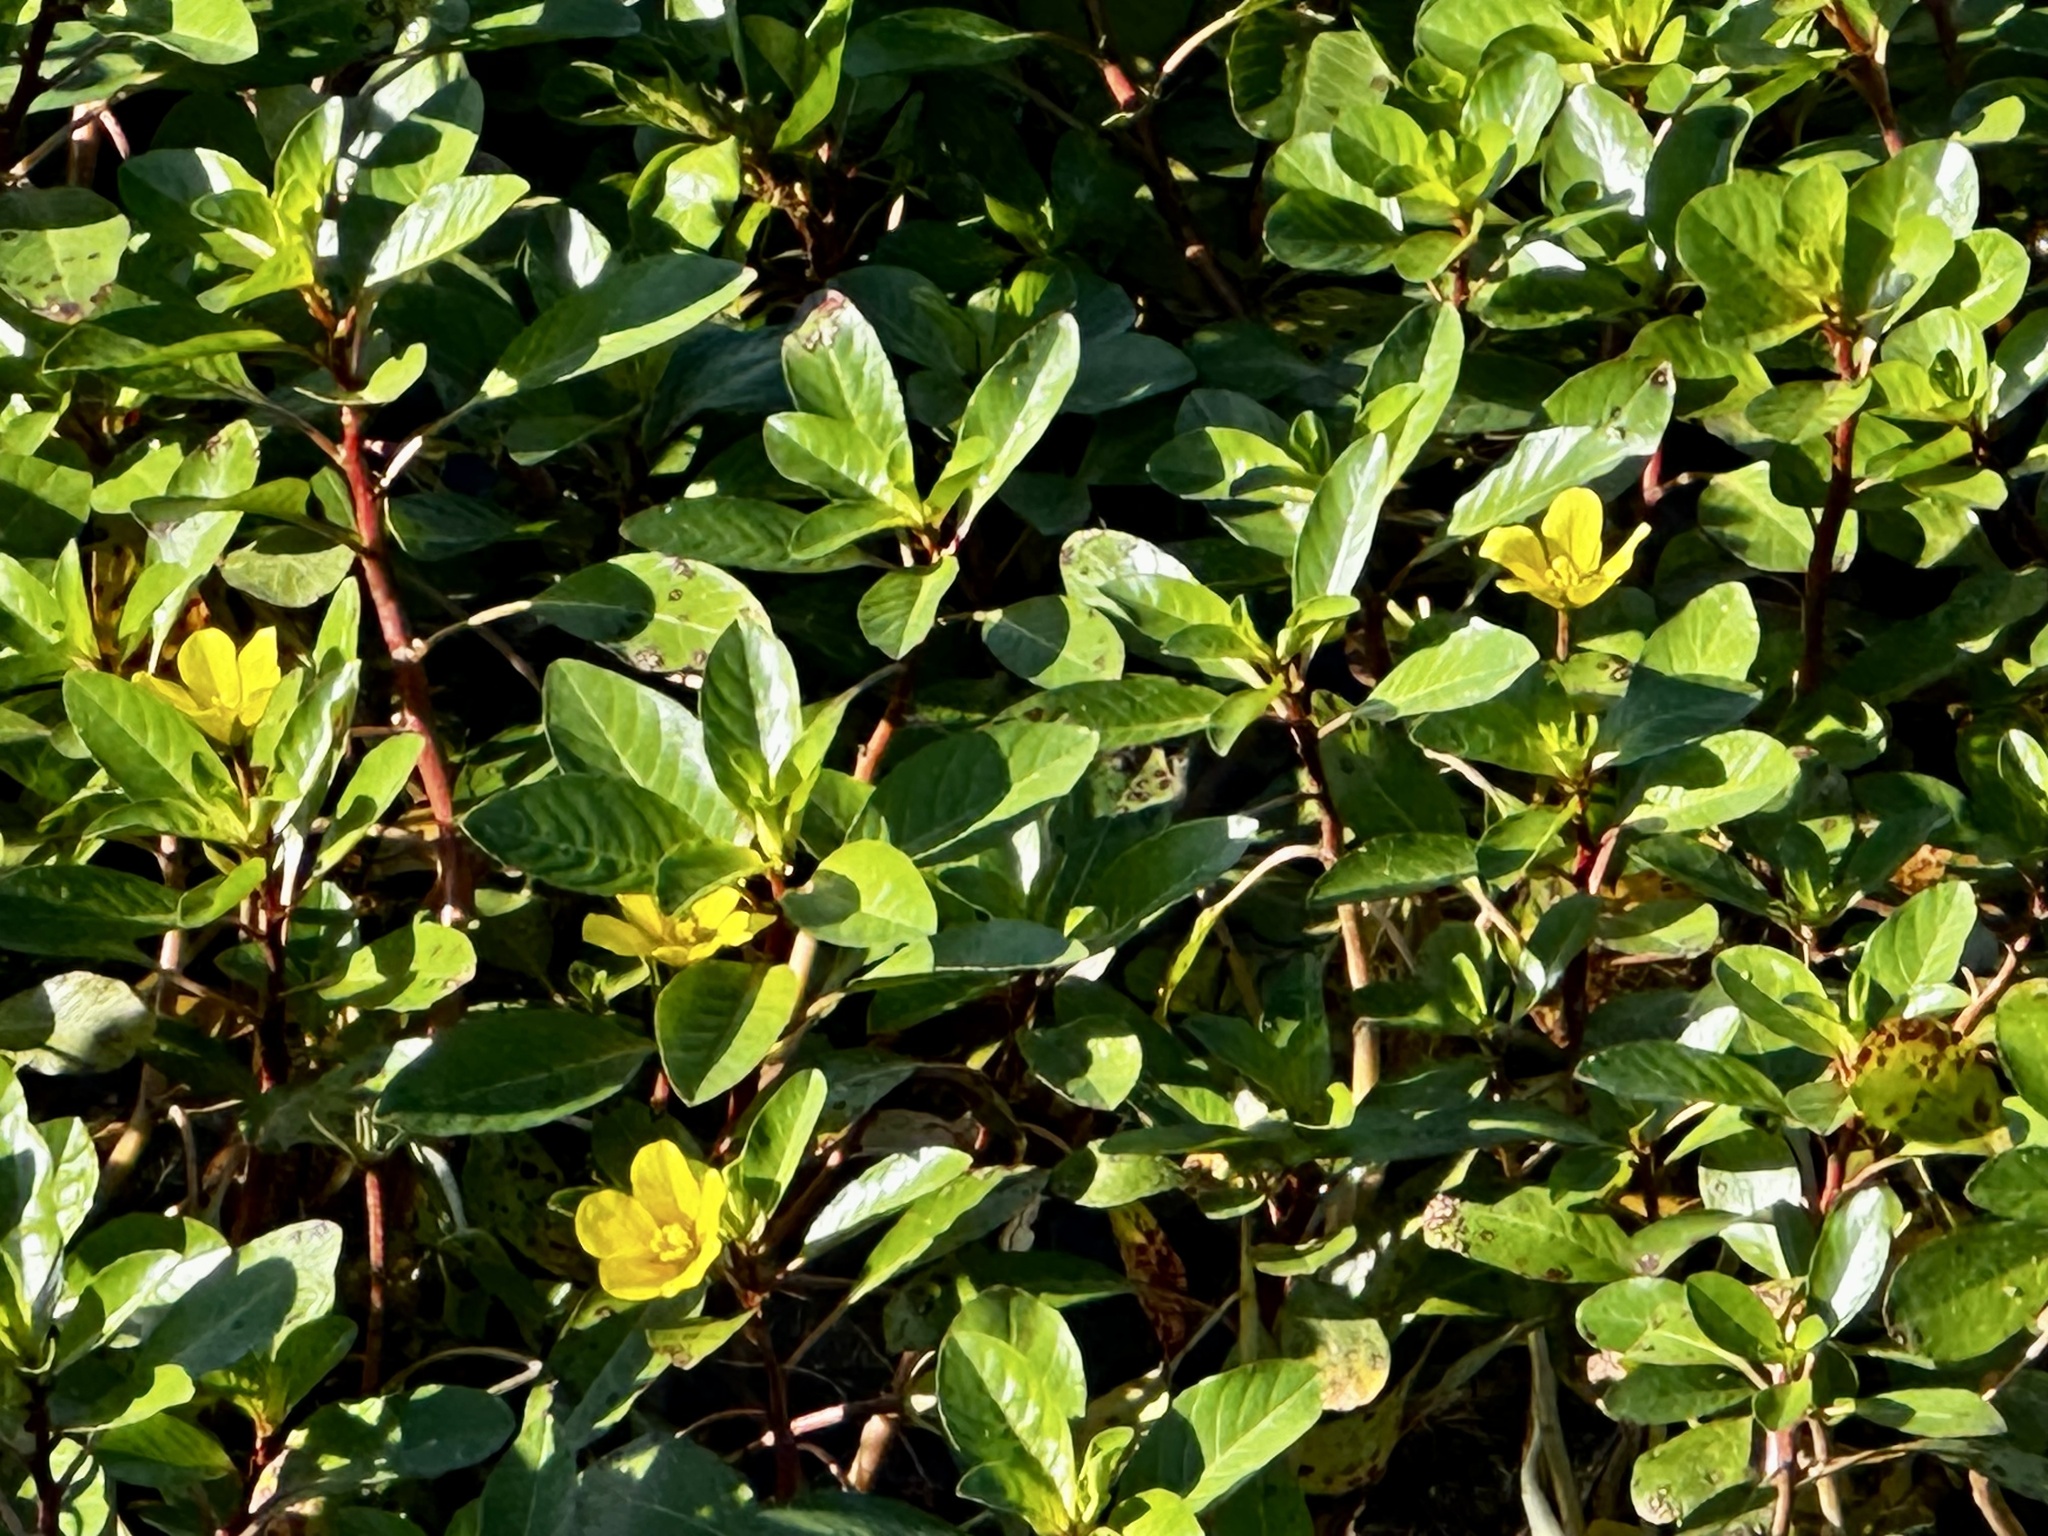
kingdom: Plantae
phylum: Tracheophyta
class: Magnoliopsida
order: Myrtales
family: Onagraceae
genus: Ludwigia
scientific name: Ludwigia peploides
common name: Floating primrose-willow
